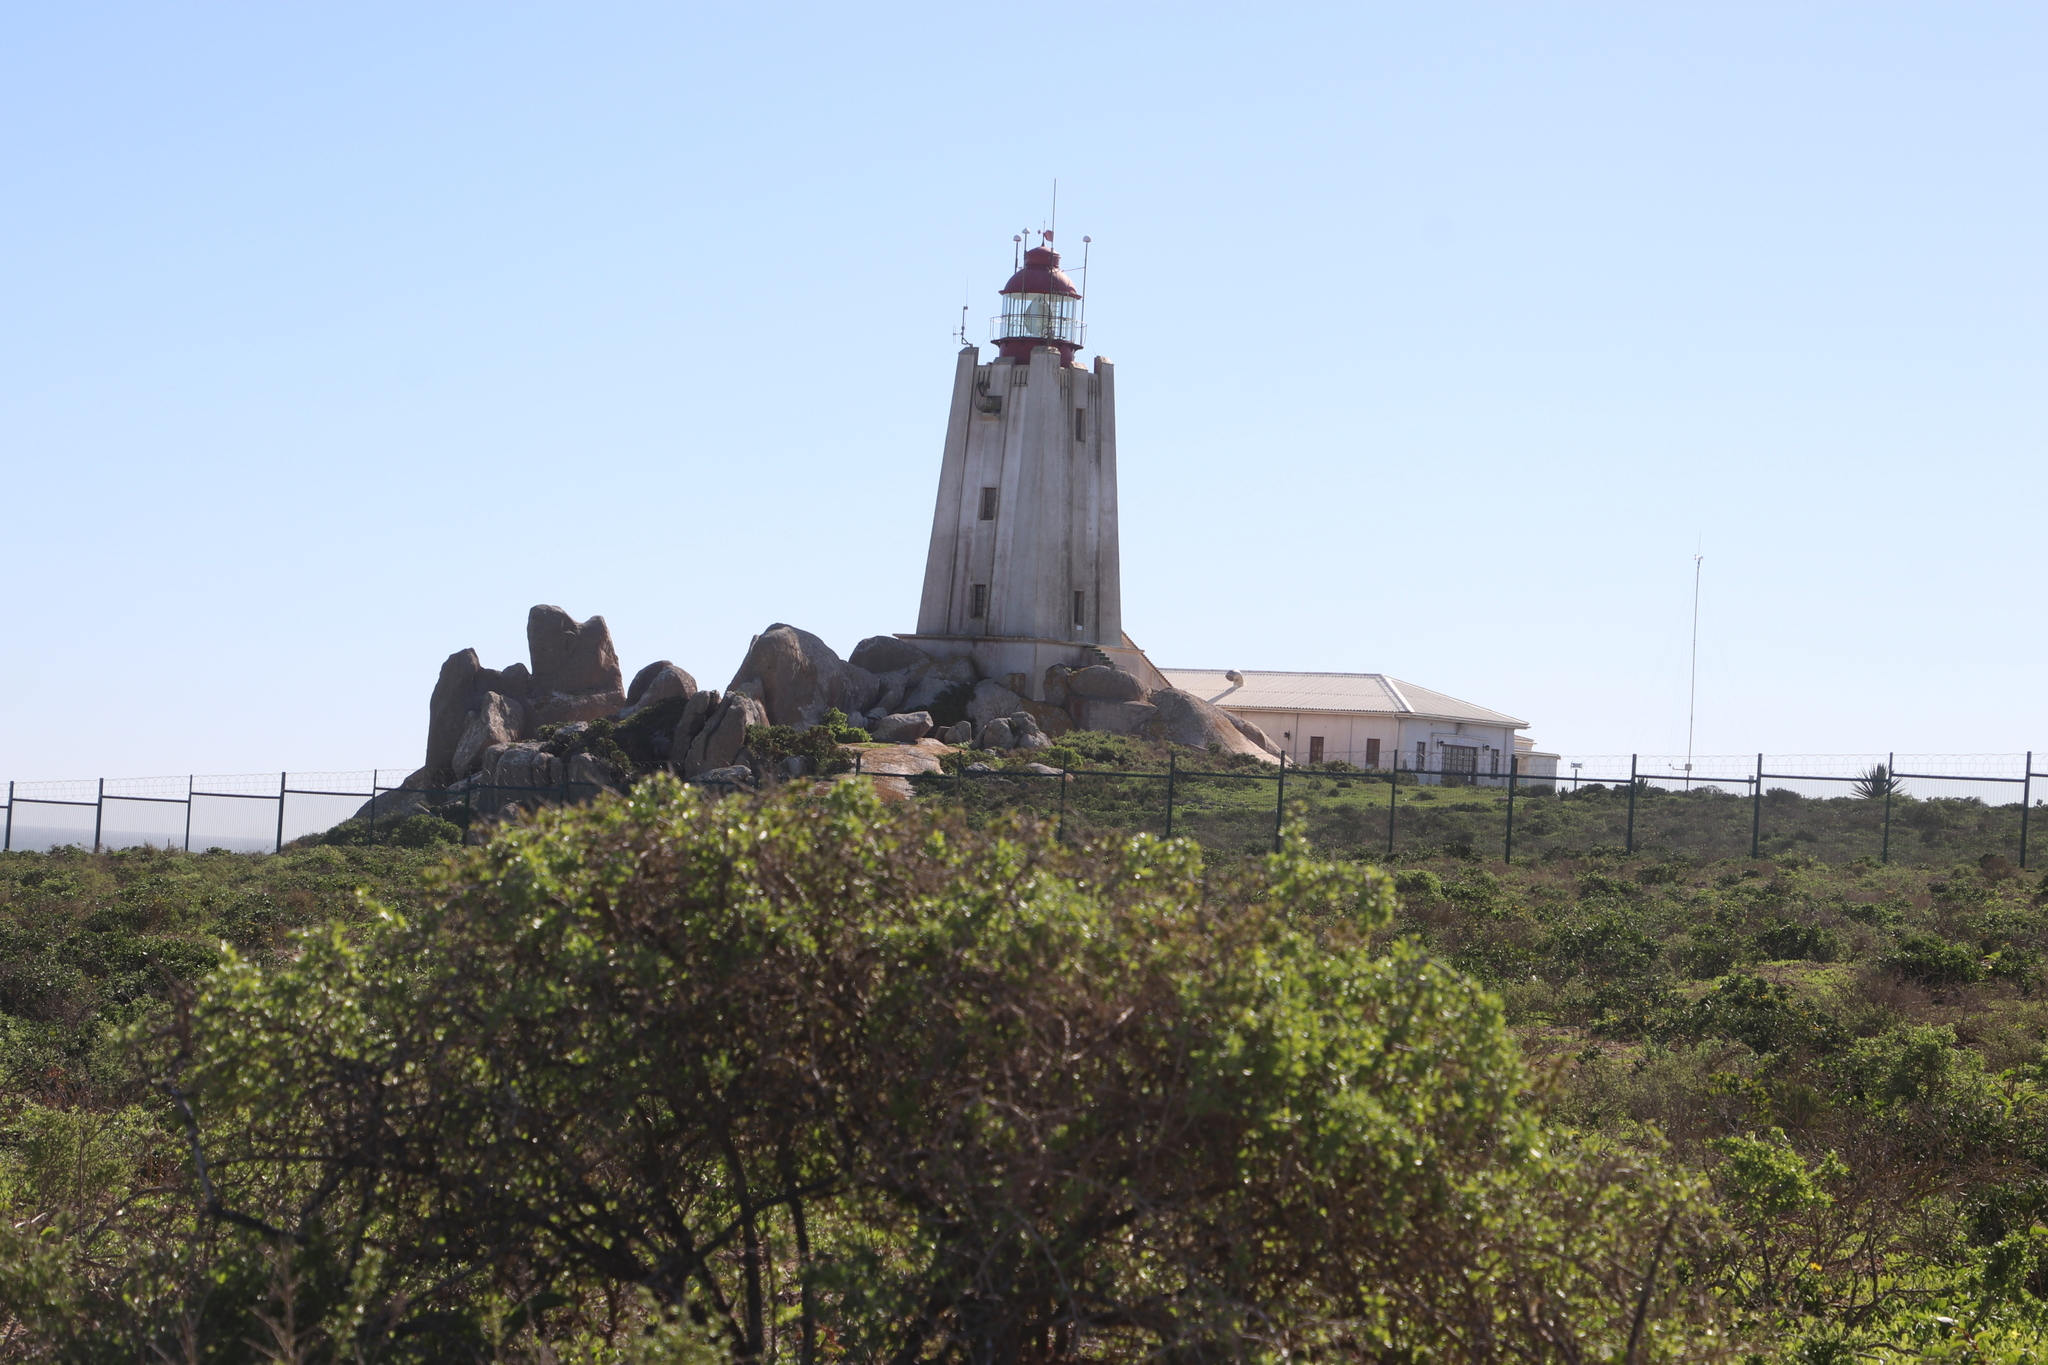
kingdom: Plantae
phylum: Tracheophyta
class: Magnoliopsida
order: Asterales
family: Asteraceae
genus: Osteospermum
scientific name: Osteospermum moniliferum
